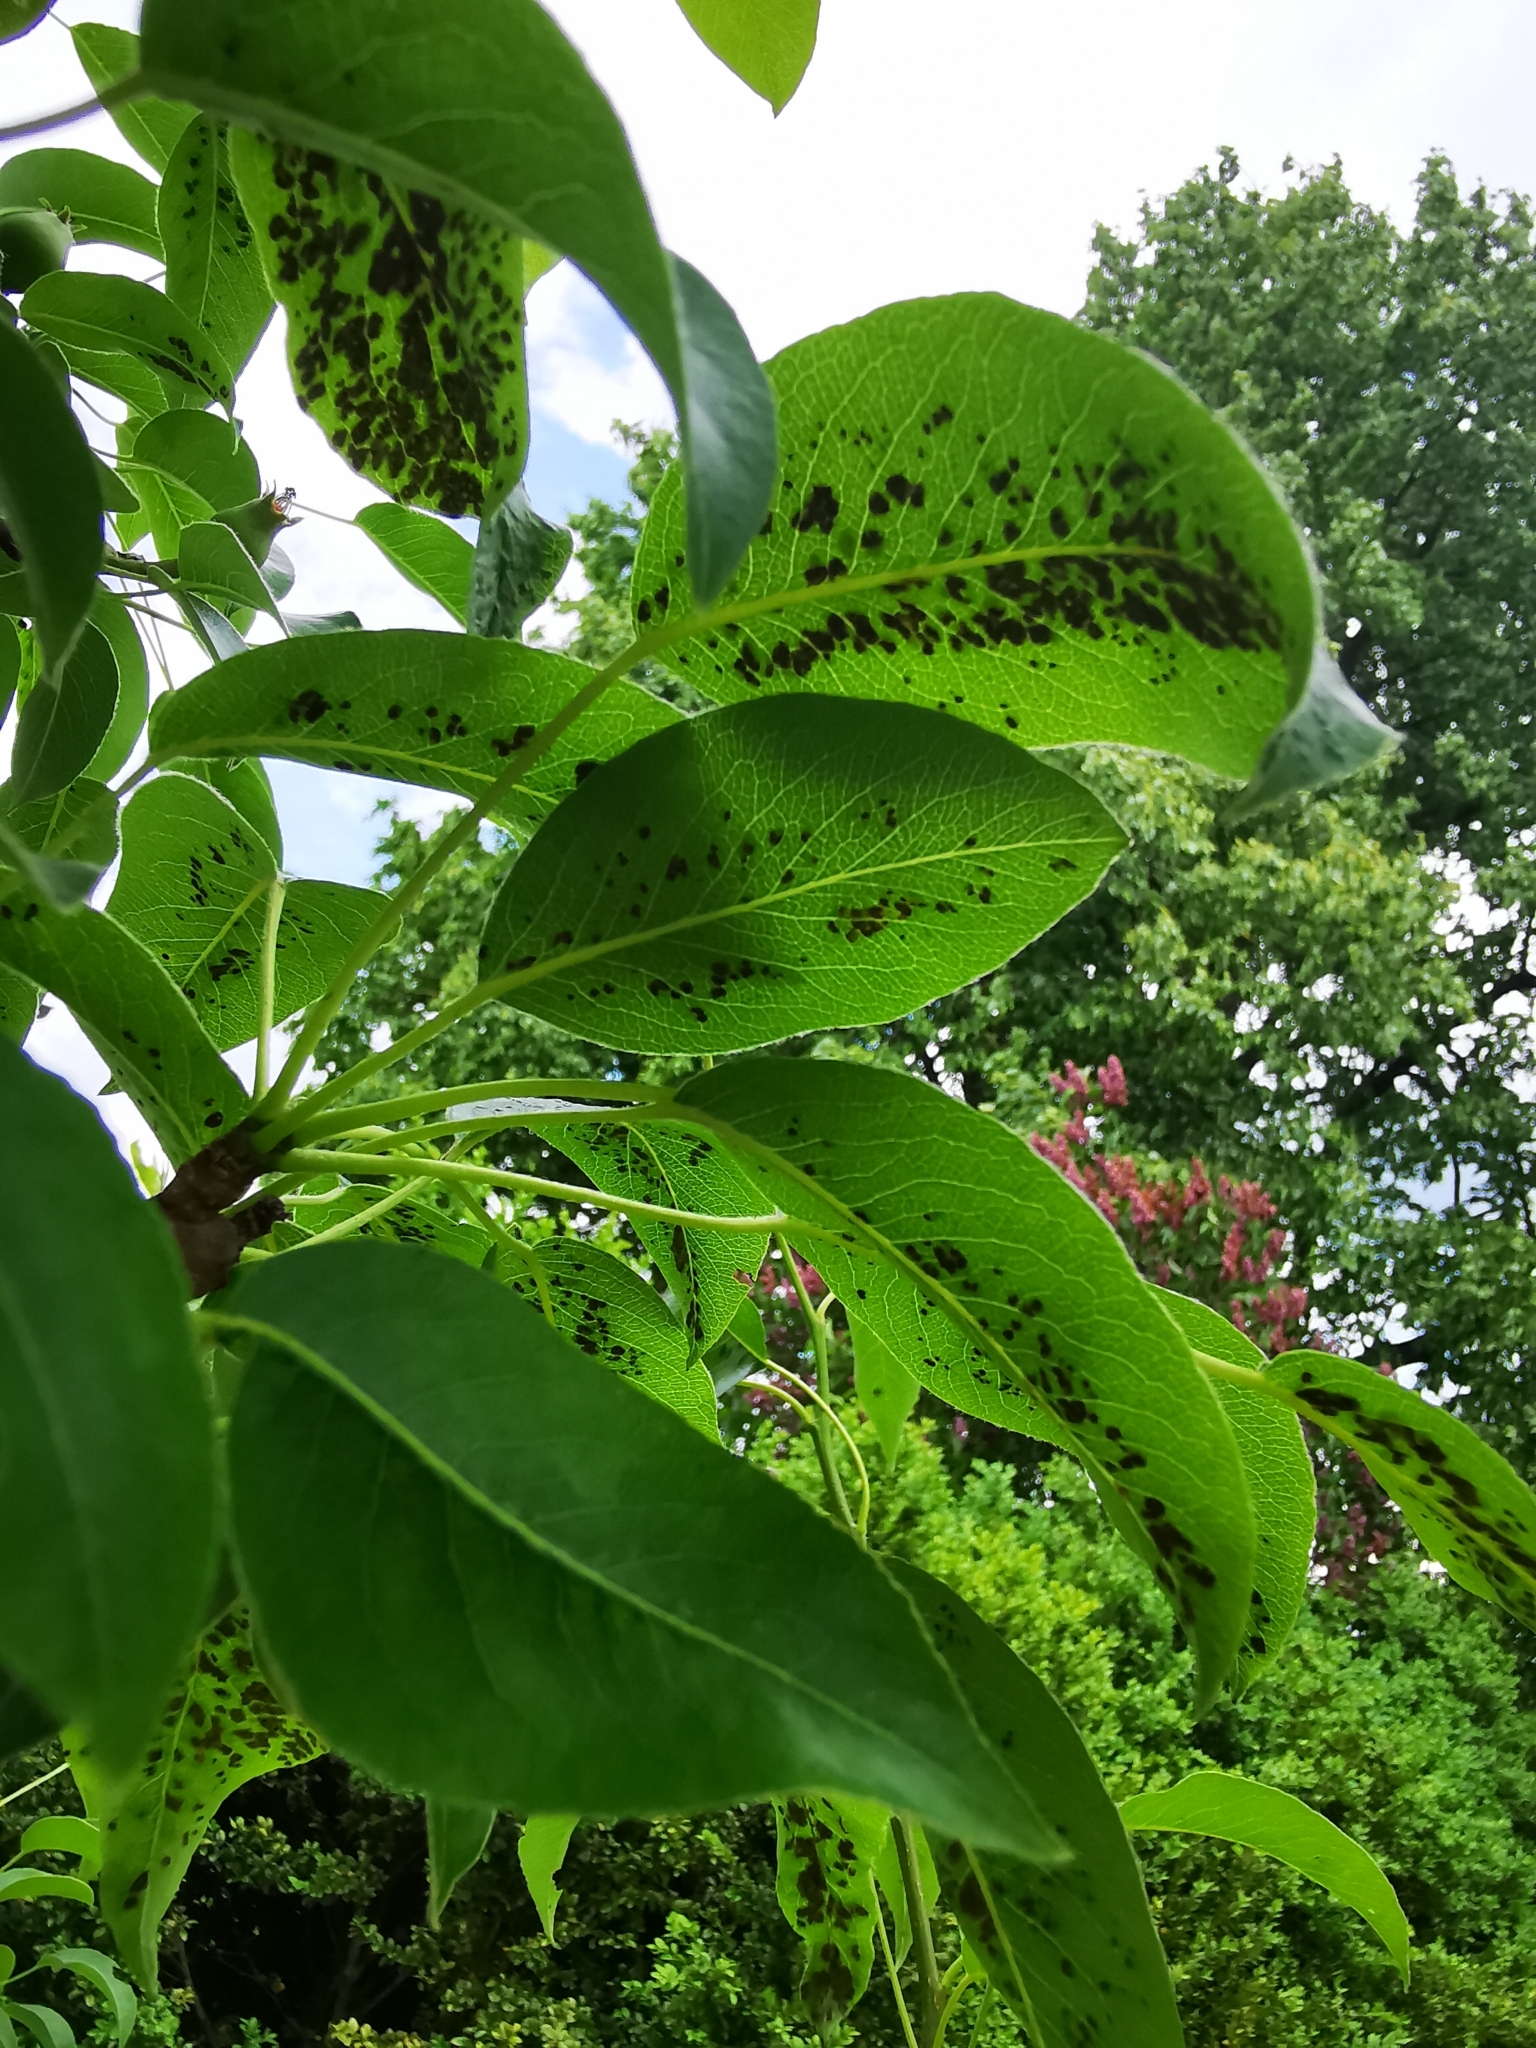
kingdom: Animalia
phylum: Arthropoda
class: Arachnida
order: Trombidiformes
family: Eriophyidae
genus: Eriophyes
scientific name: Eriophyes pyri
